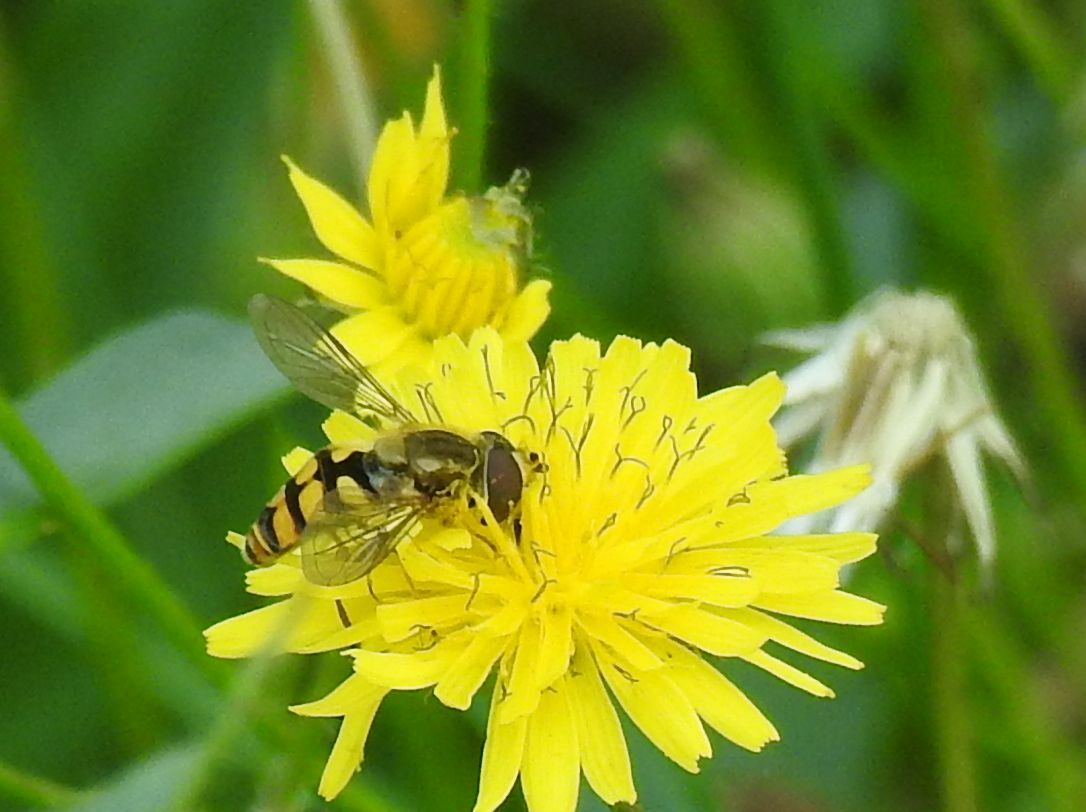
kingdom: Animalia
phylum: Arthropoda
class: Insecta
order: Diptera
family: Syrphidae
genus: Eupeodes
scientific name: Eupeodes corollae
